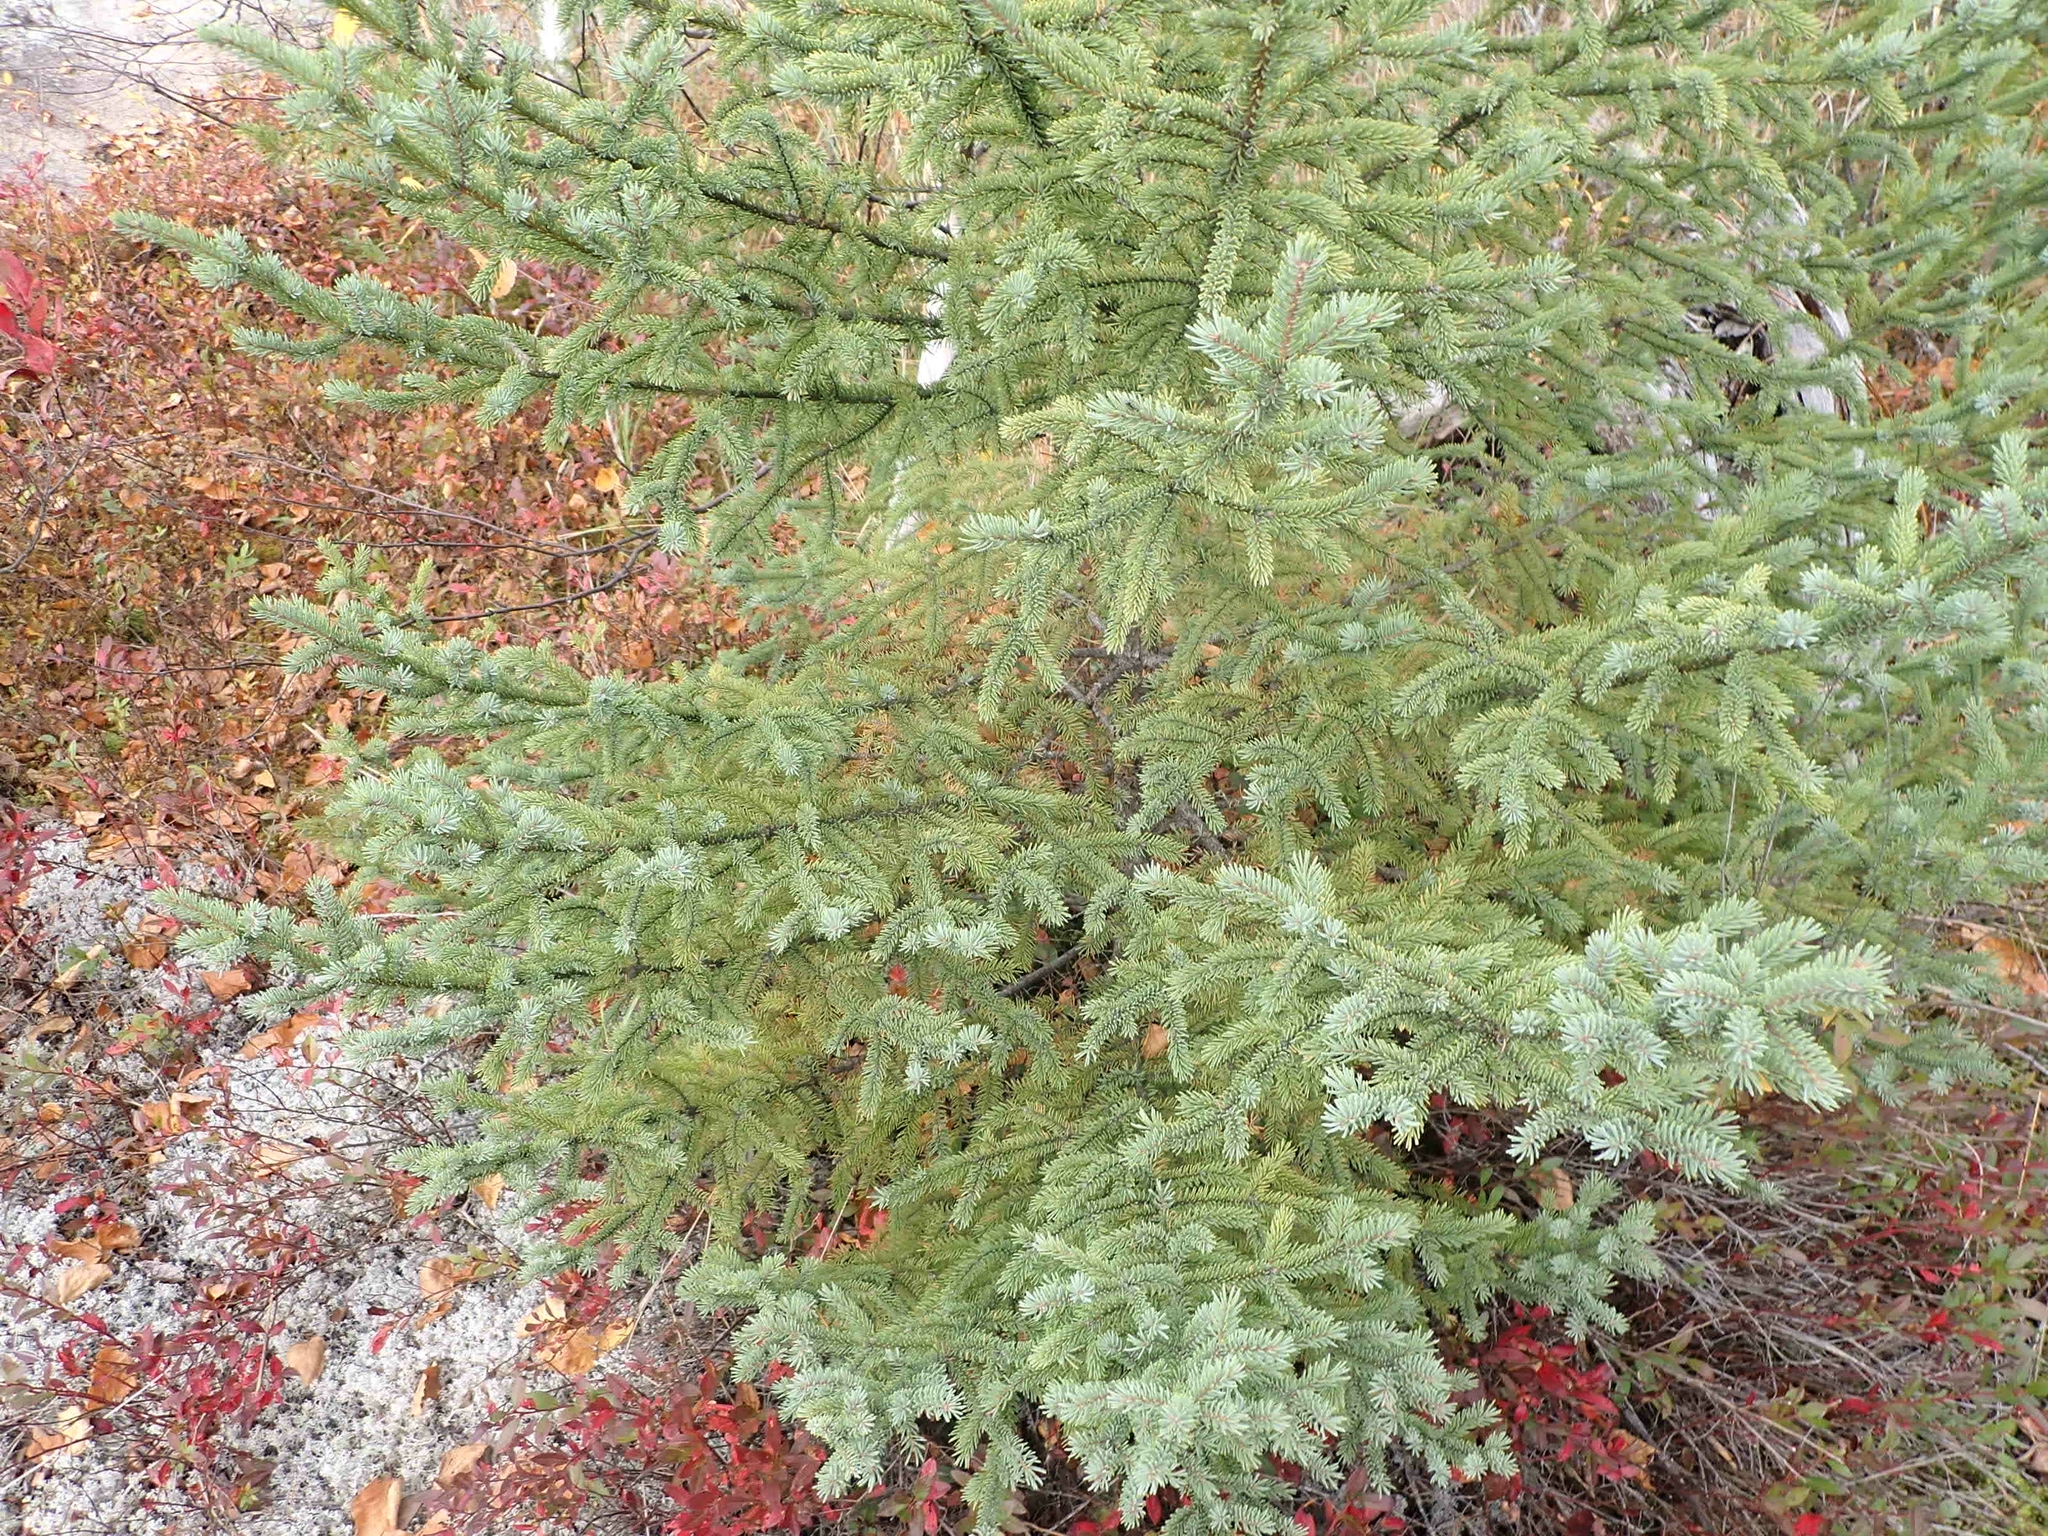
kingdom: Plantae
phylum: Tracheophyta
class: Pinopsida
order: Pinales
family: Pinaceae
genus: Picea
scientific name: Picea glauca
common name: White spruce
